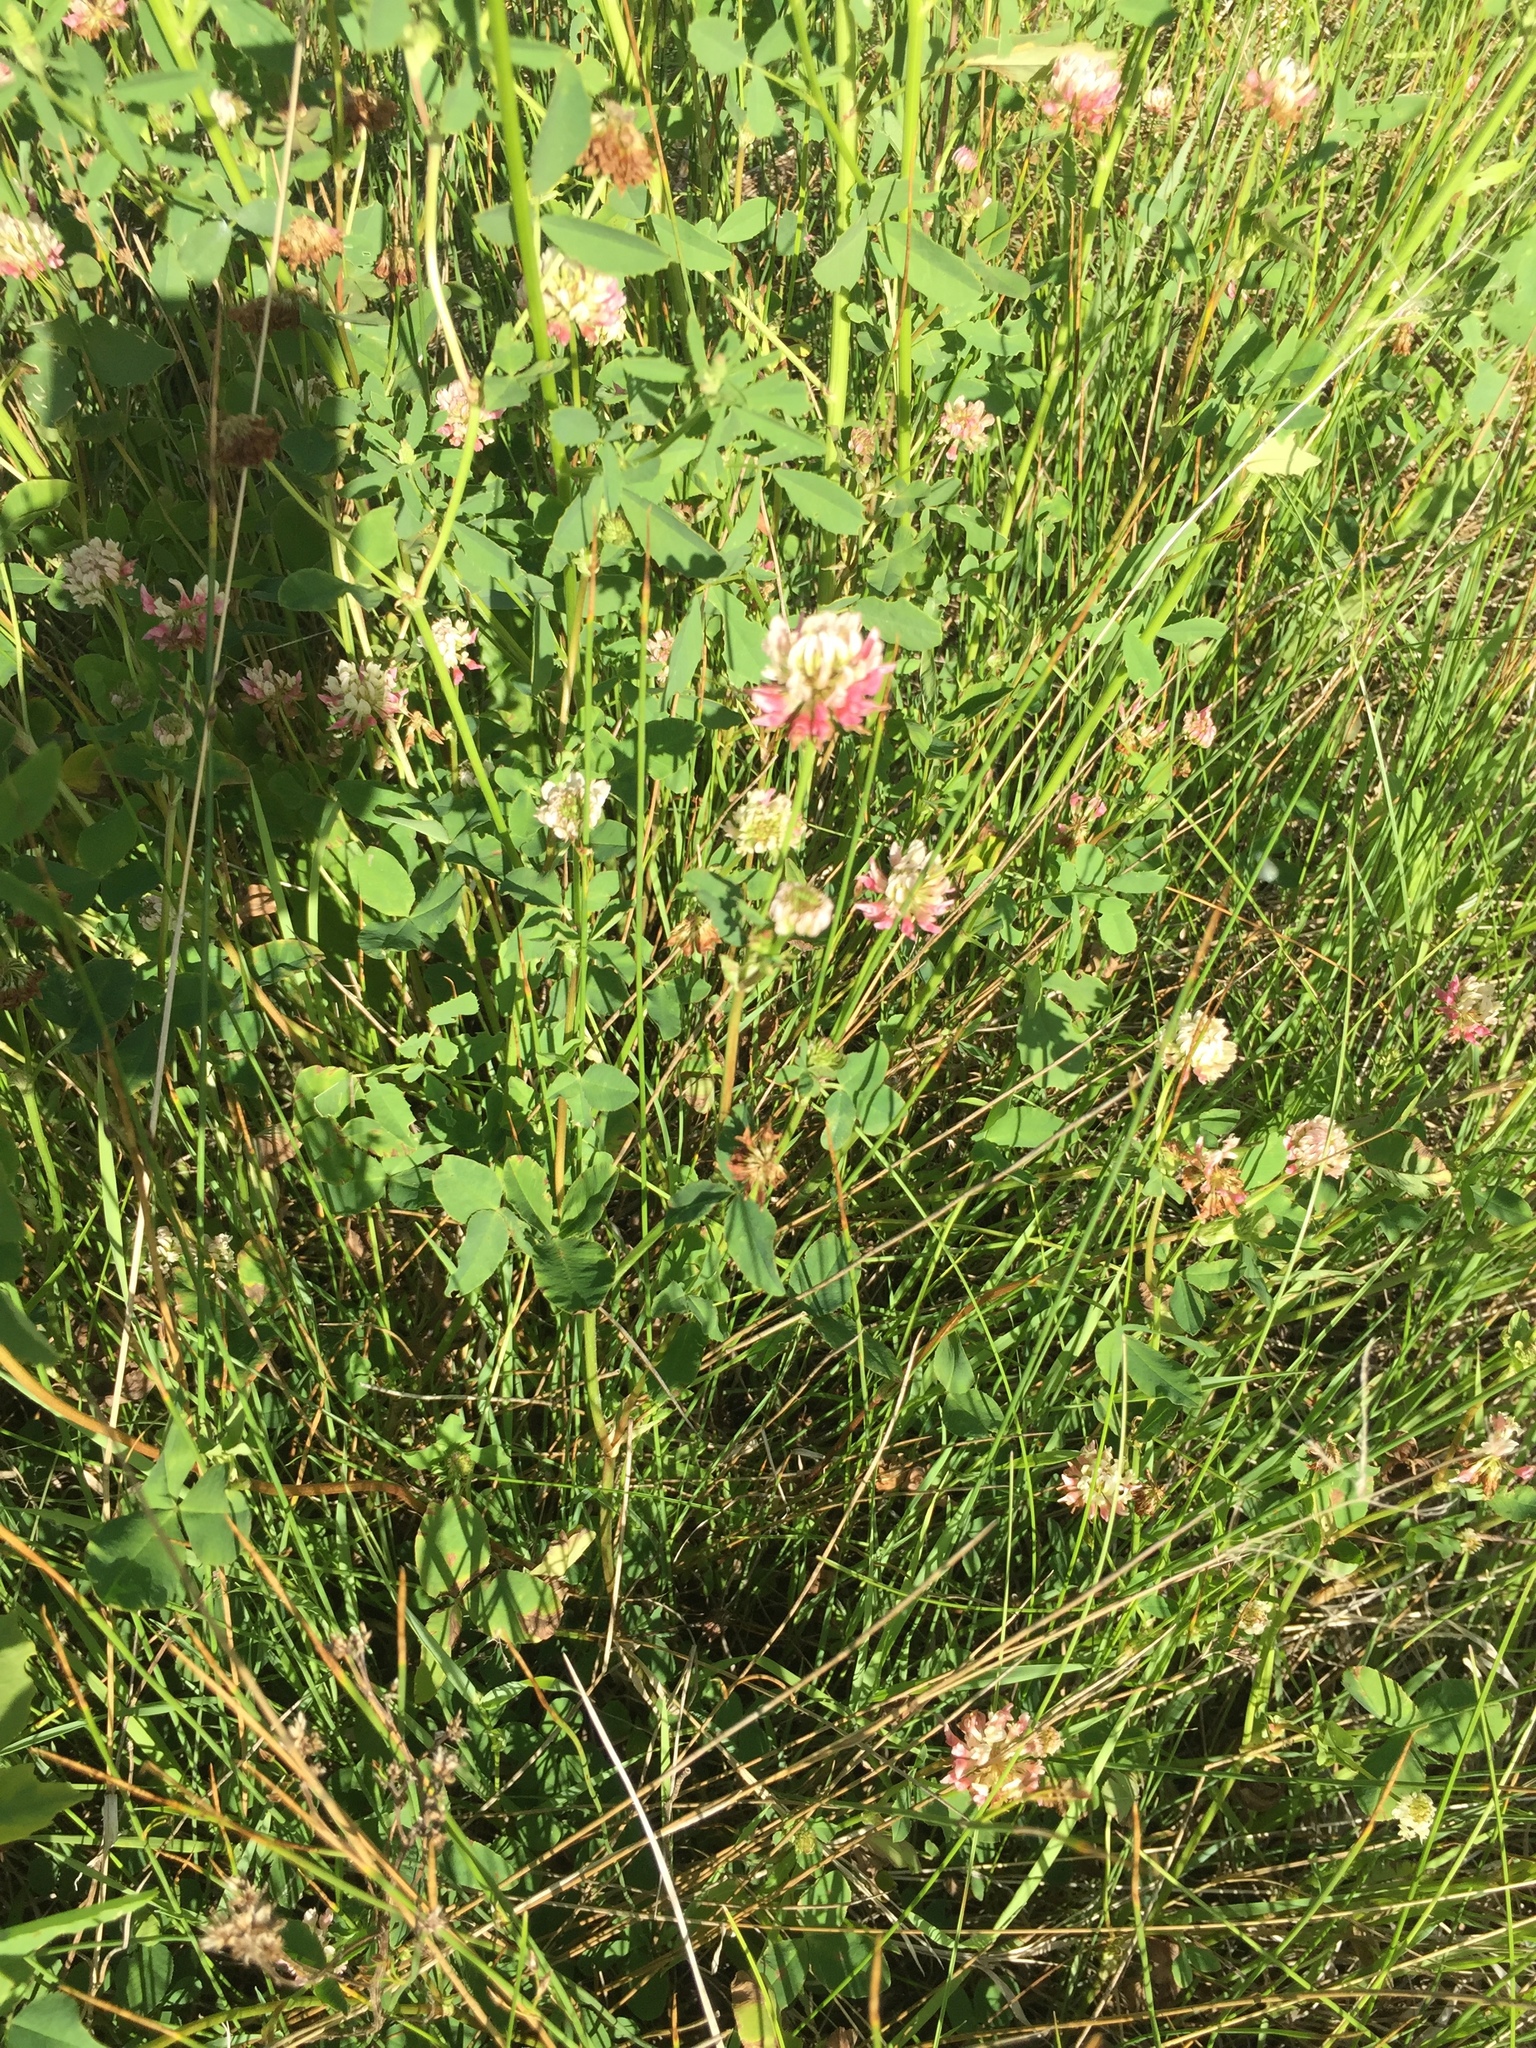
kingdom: Plantae
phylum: Tracheophyta
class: Magnoliopsida
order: Fabales
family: Fabaceae
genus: Trifolium
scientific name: Trifolium hybridum
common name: Alsike clover
